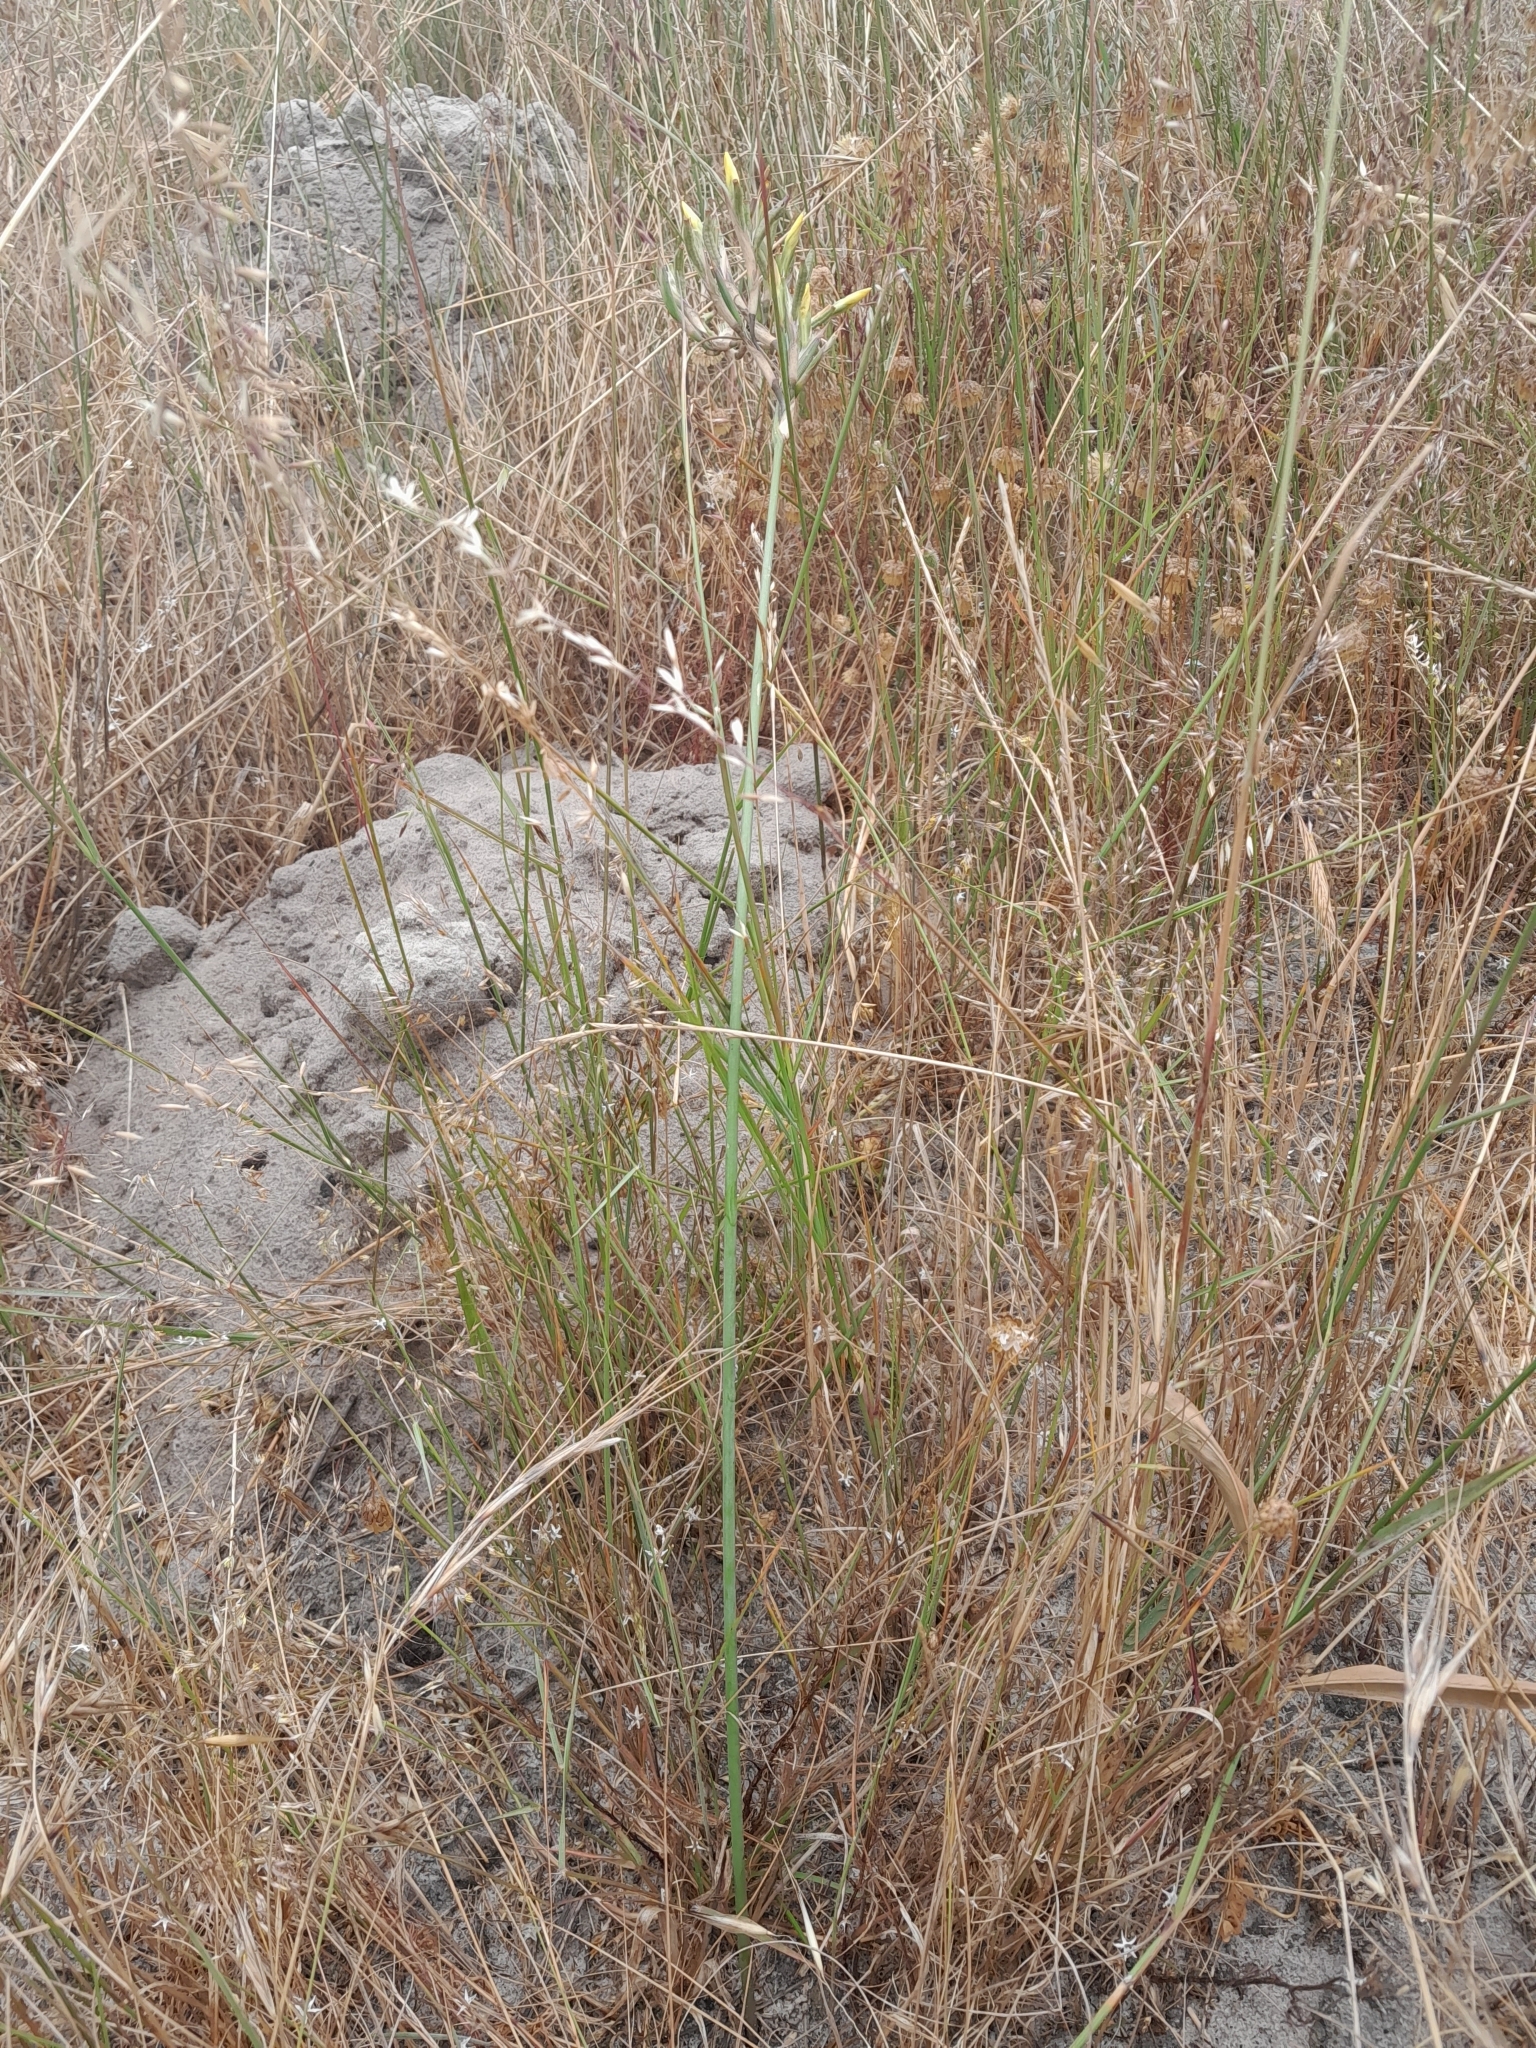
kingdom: Plantae
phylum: Tracheophyta
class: Liliopsida
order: Asparagales
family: Iridaceae
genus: Moraea
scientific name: Moraea fugax
